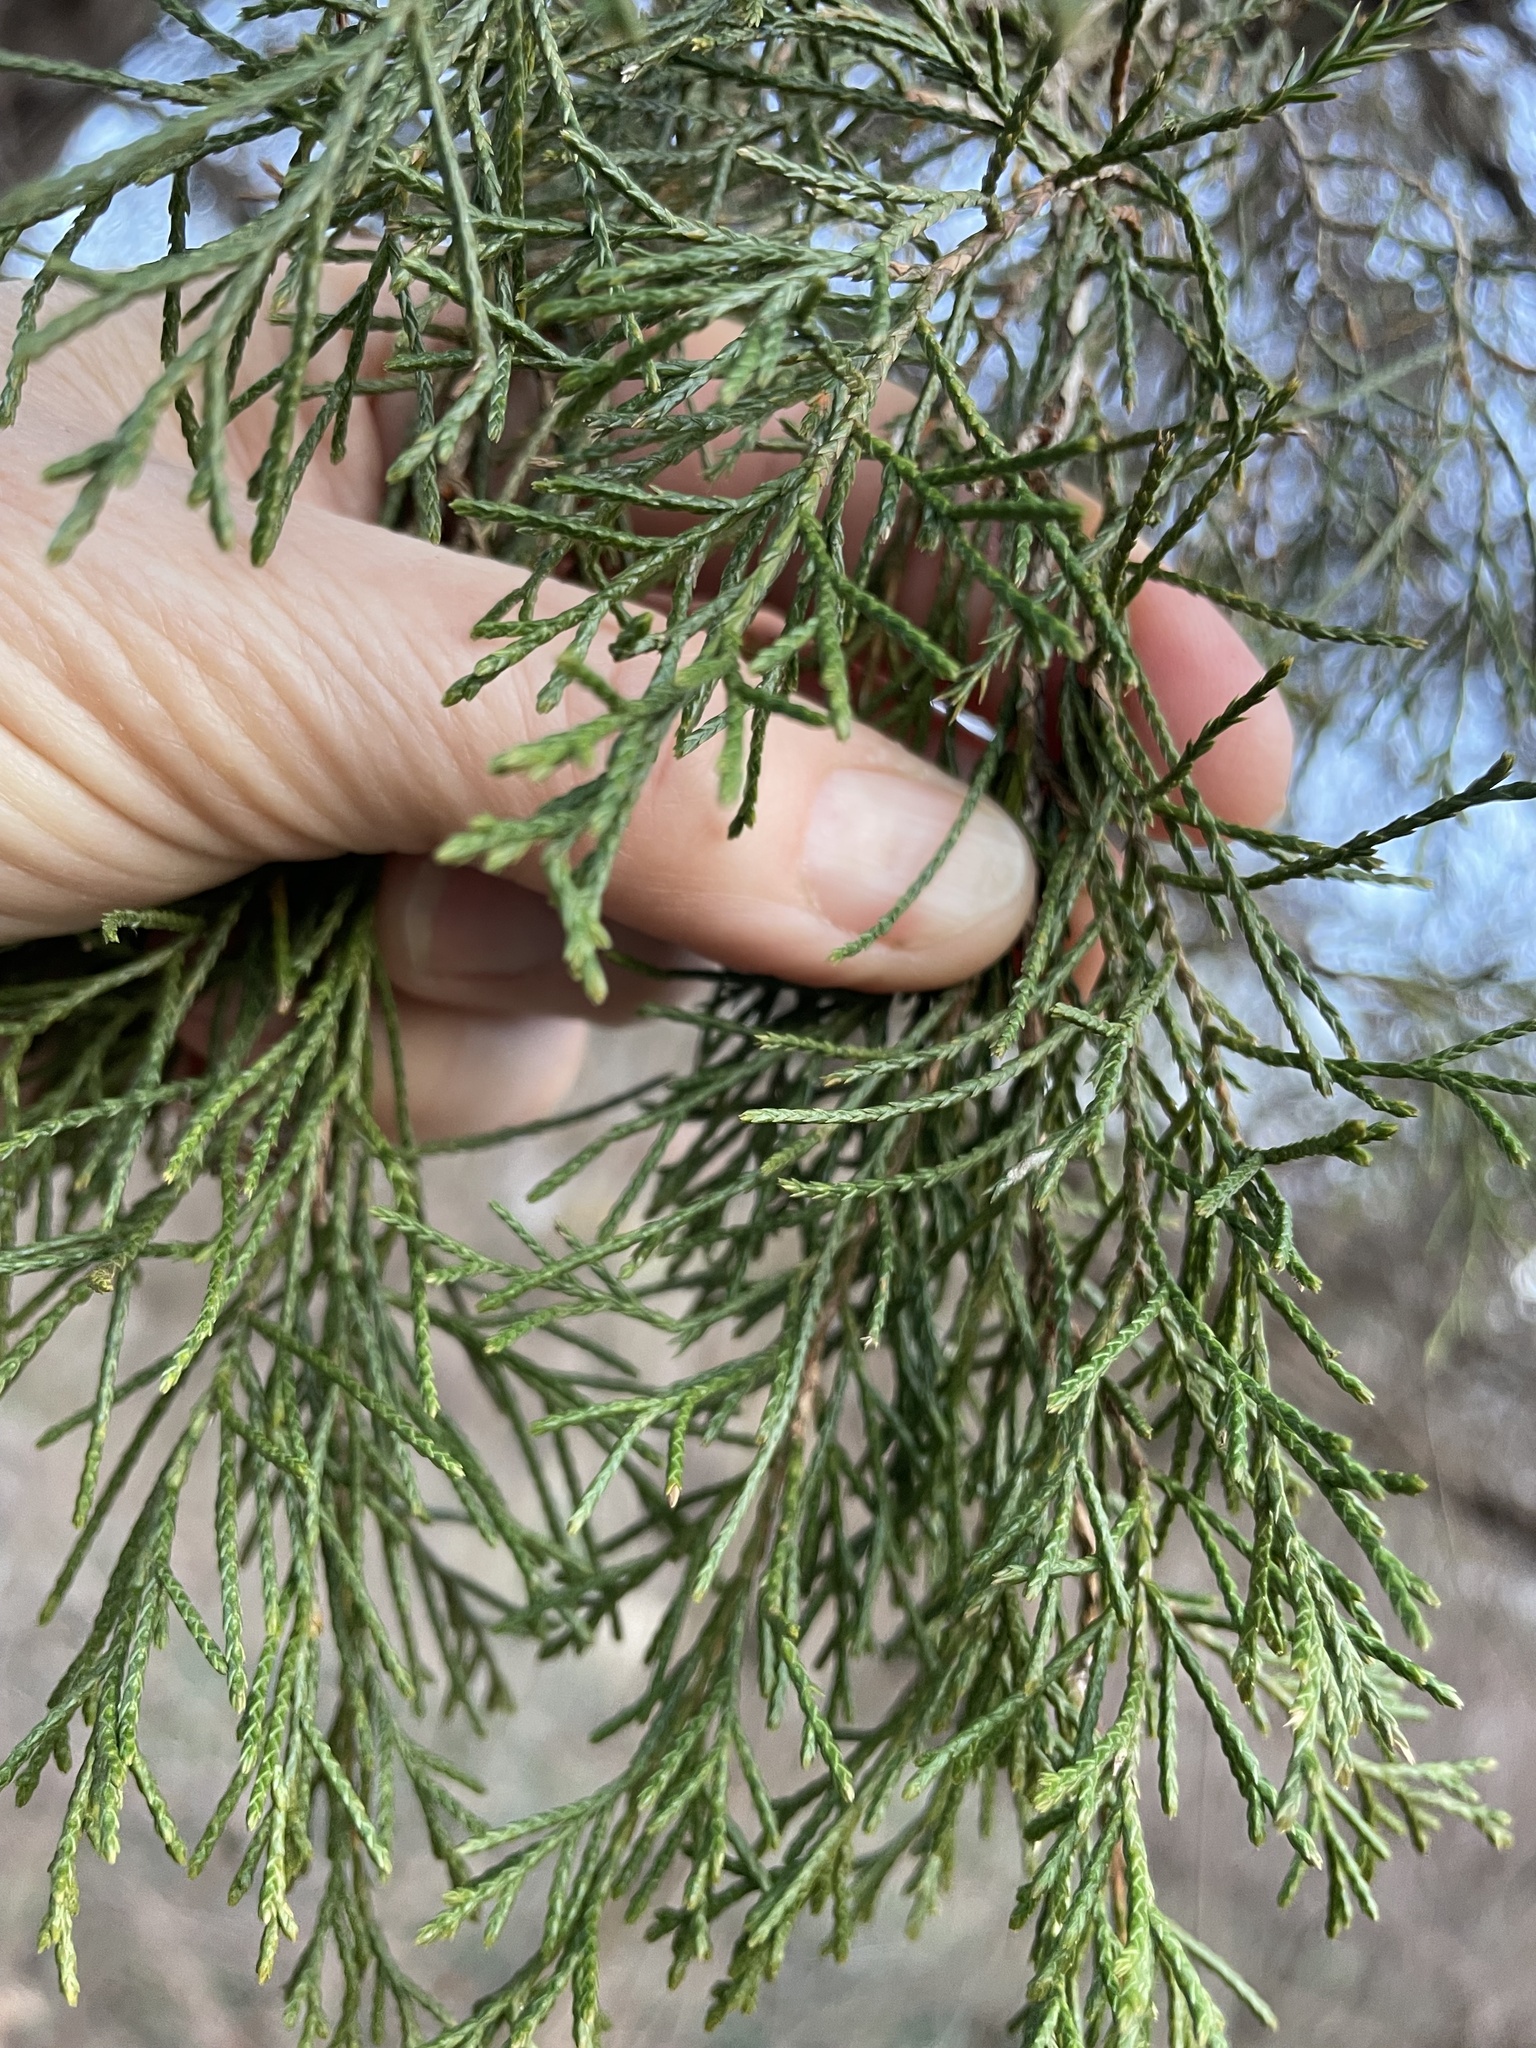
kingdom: Plantae
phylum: Tracheophyta
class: Pinopsida
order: Pinales
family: Cupressaceae
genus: Juniperus
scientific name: Juniperus virginiana
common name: Red juniper
